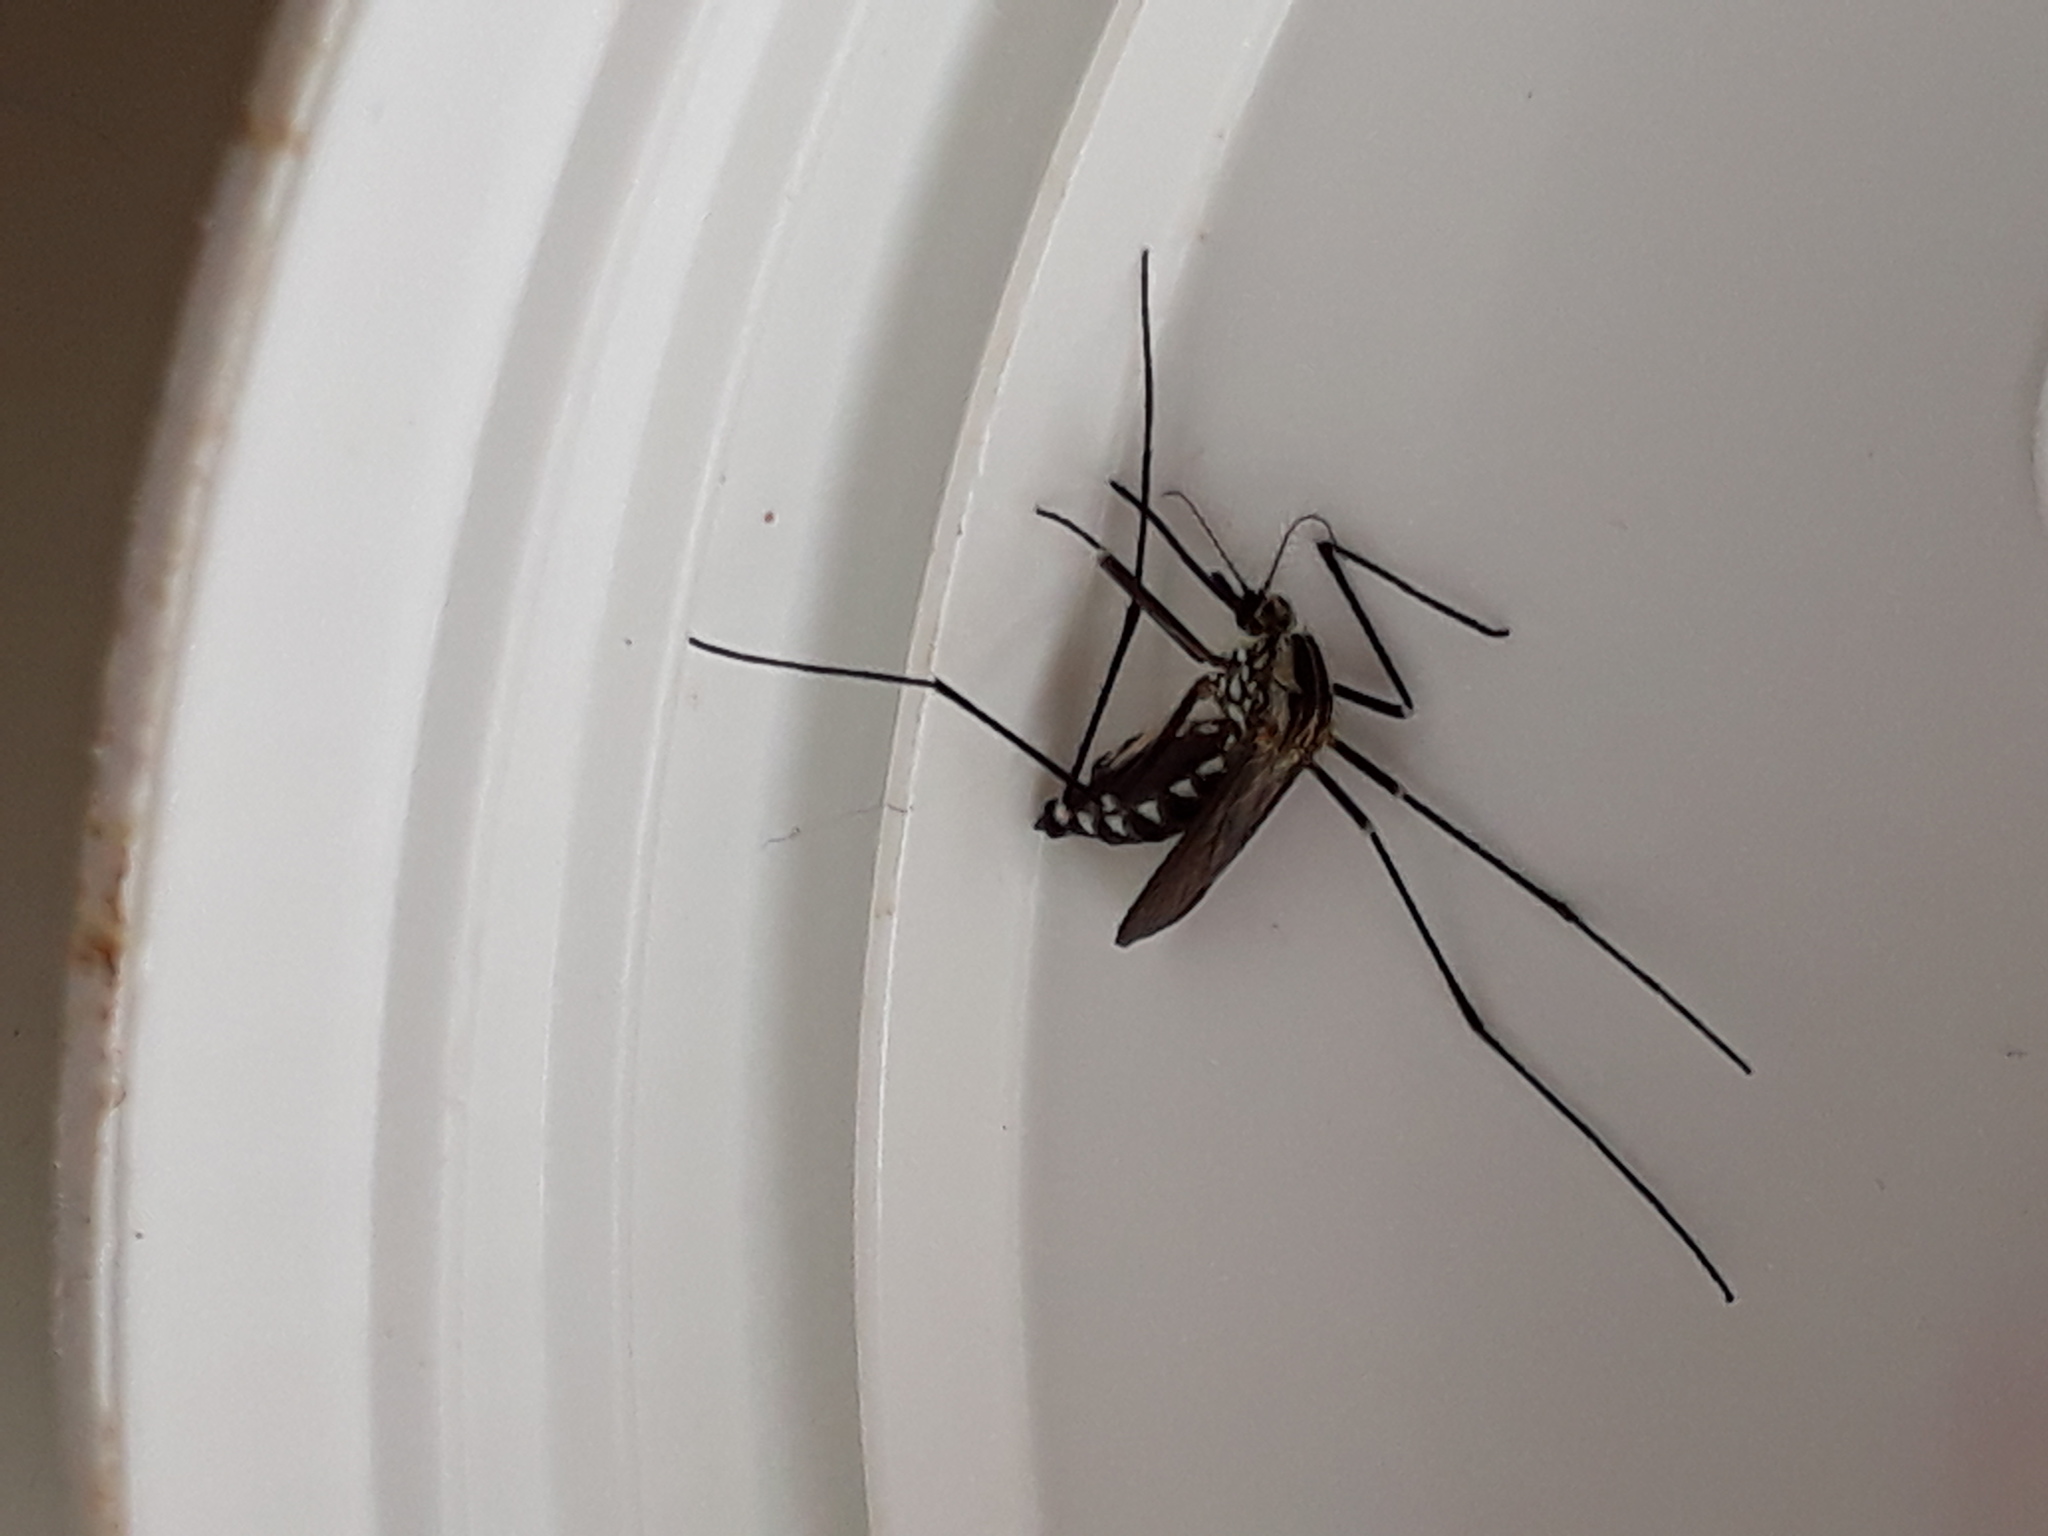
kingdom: Animalia
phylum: Arthropoda
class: Insecta
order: Diptera
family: Culicidae
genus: Aedes
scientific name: Aedes geniculatus
